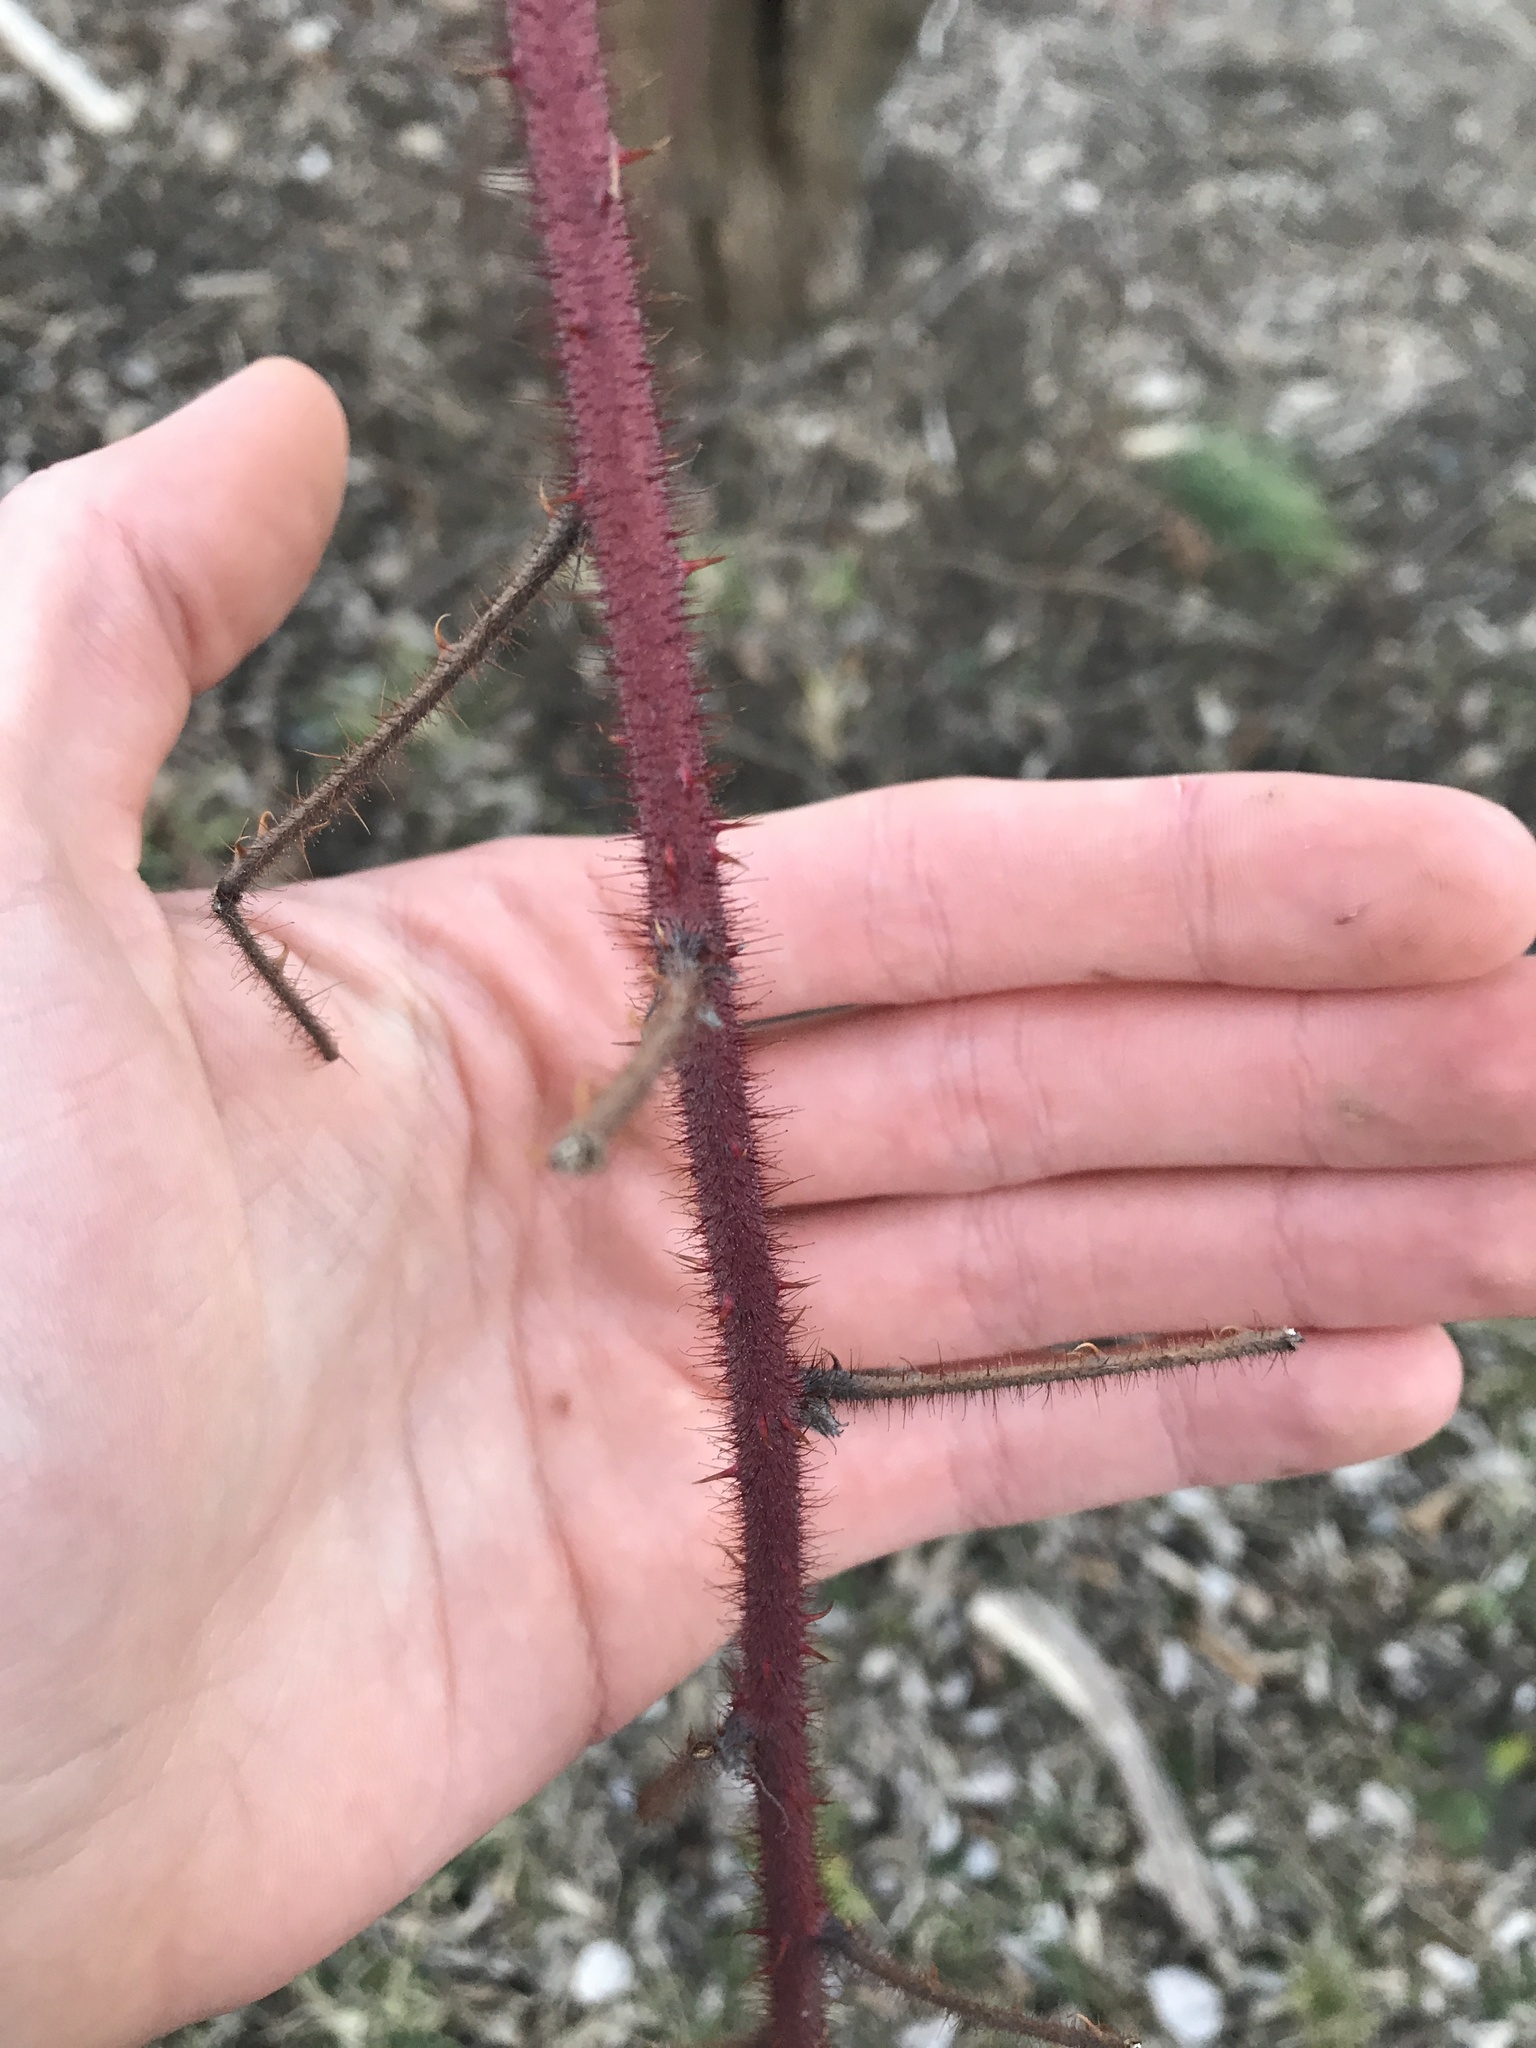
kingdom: Plantae
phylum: Tracheophyta
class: Magnoliopsida
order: Rosales
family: Rosaceae
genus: Rubus
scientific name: Rubus phoenicolasius
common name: Japanese wineberry
